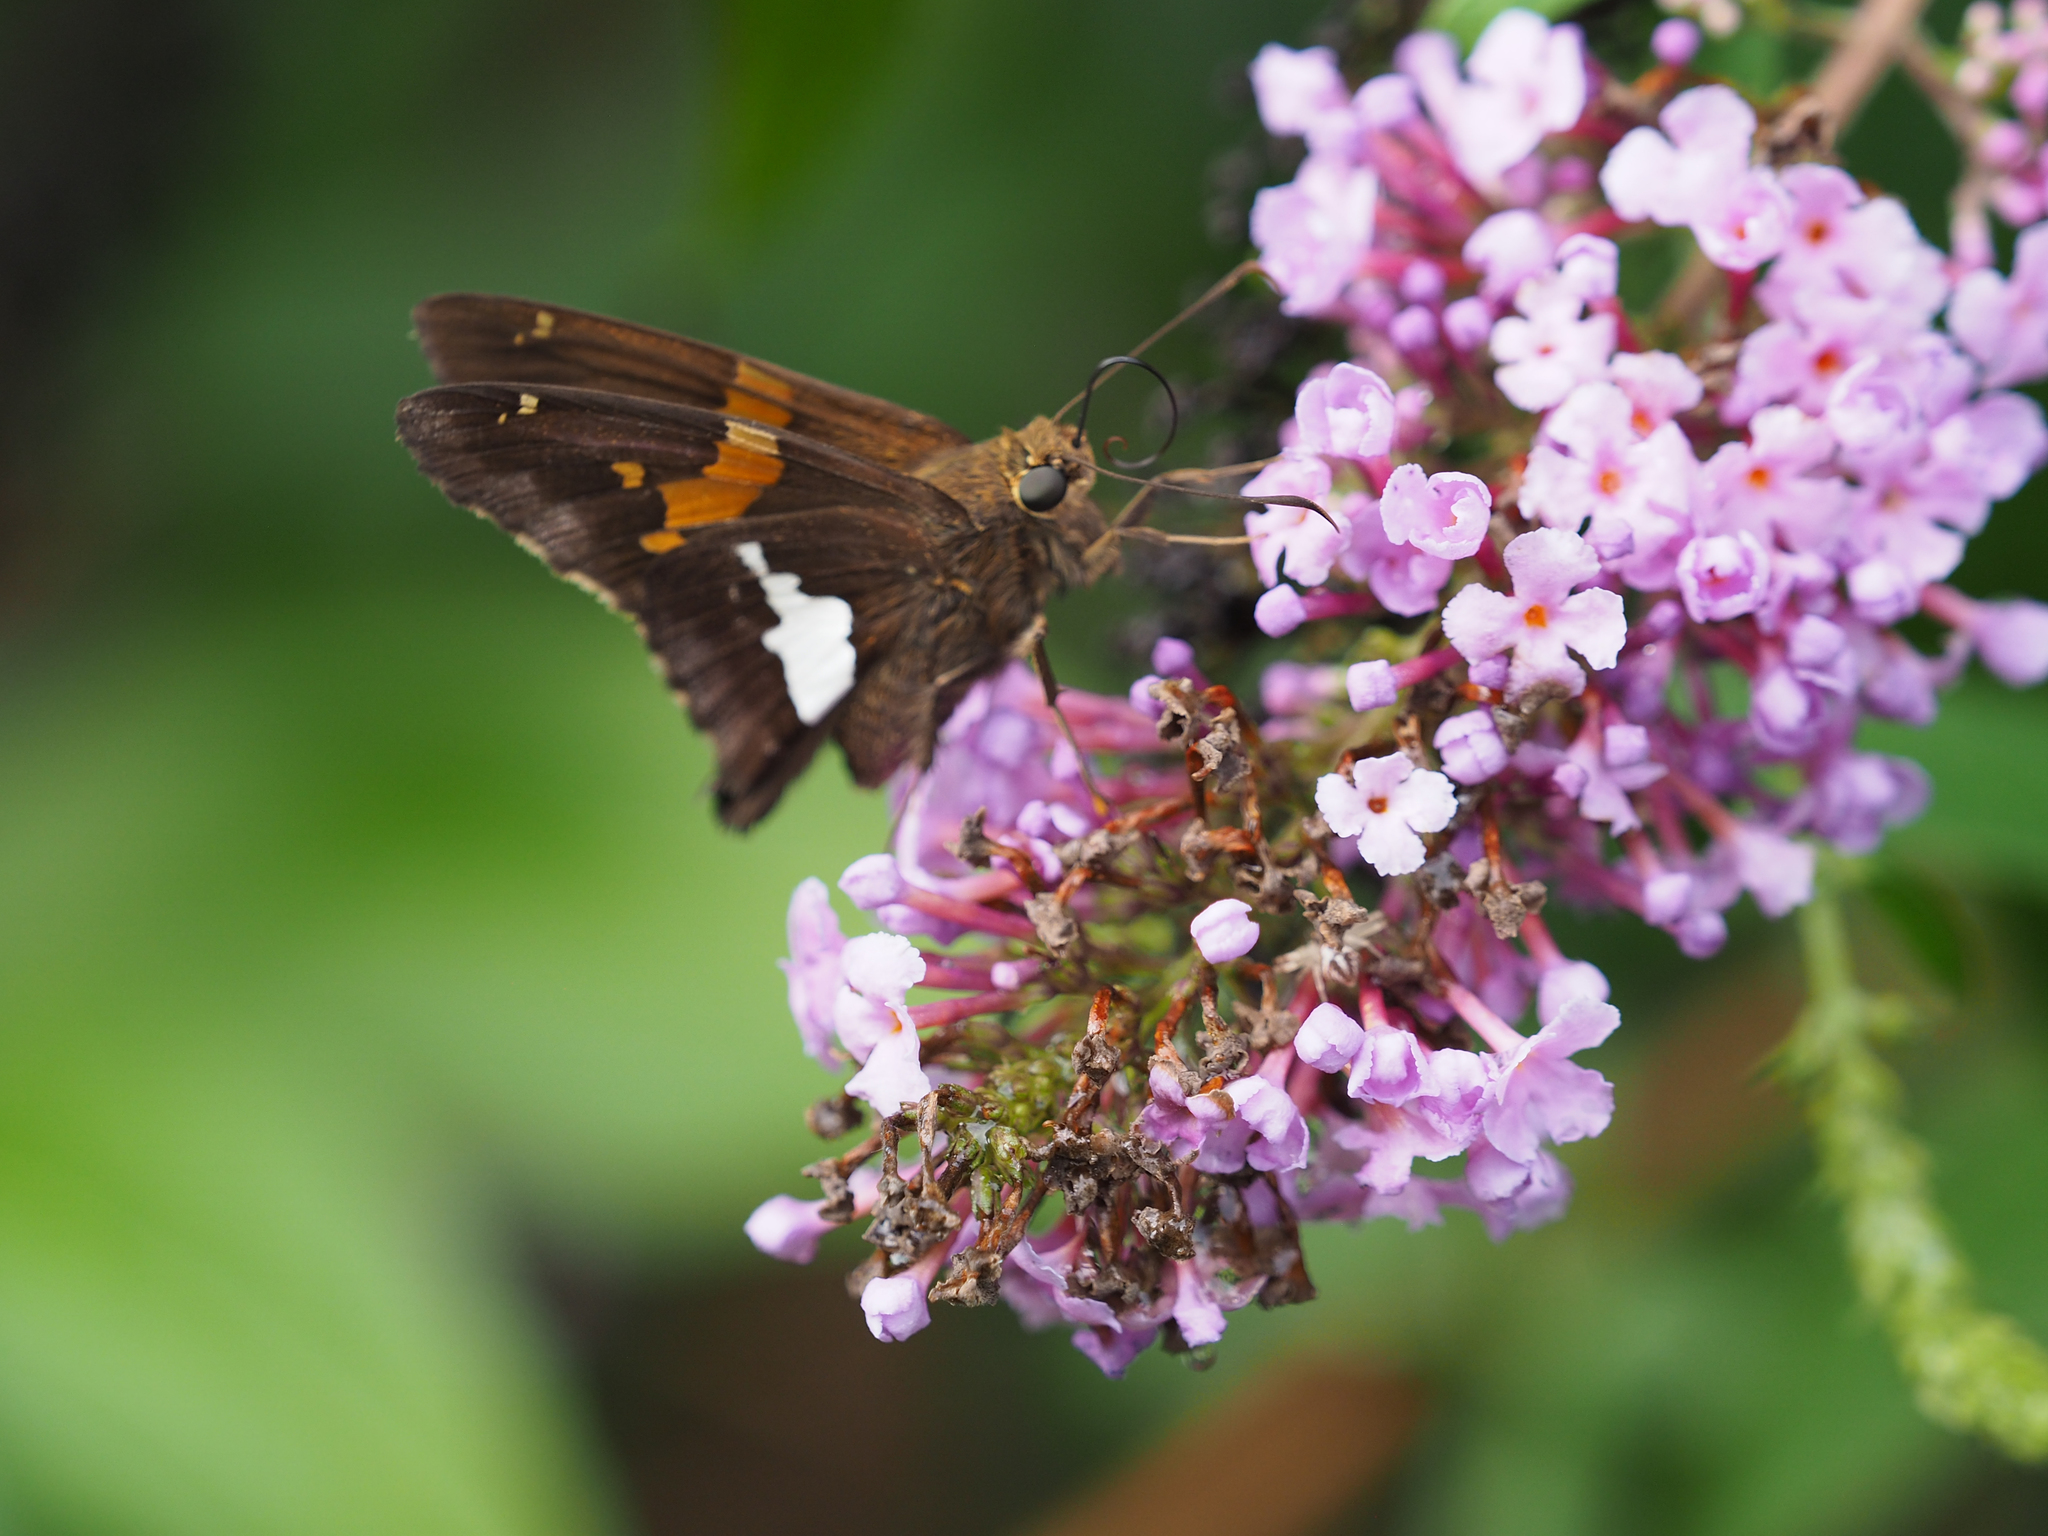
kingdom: Animalia
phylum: Arthropoda
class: Insecta
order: Lepidoptera
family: Hesperiidae
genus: Epargyreus
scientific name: Epargyreus clarus
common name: Silver-spotted skipper
